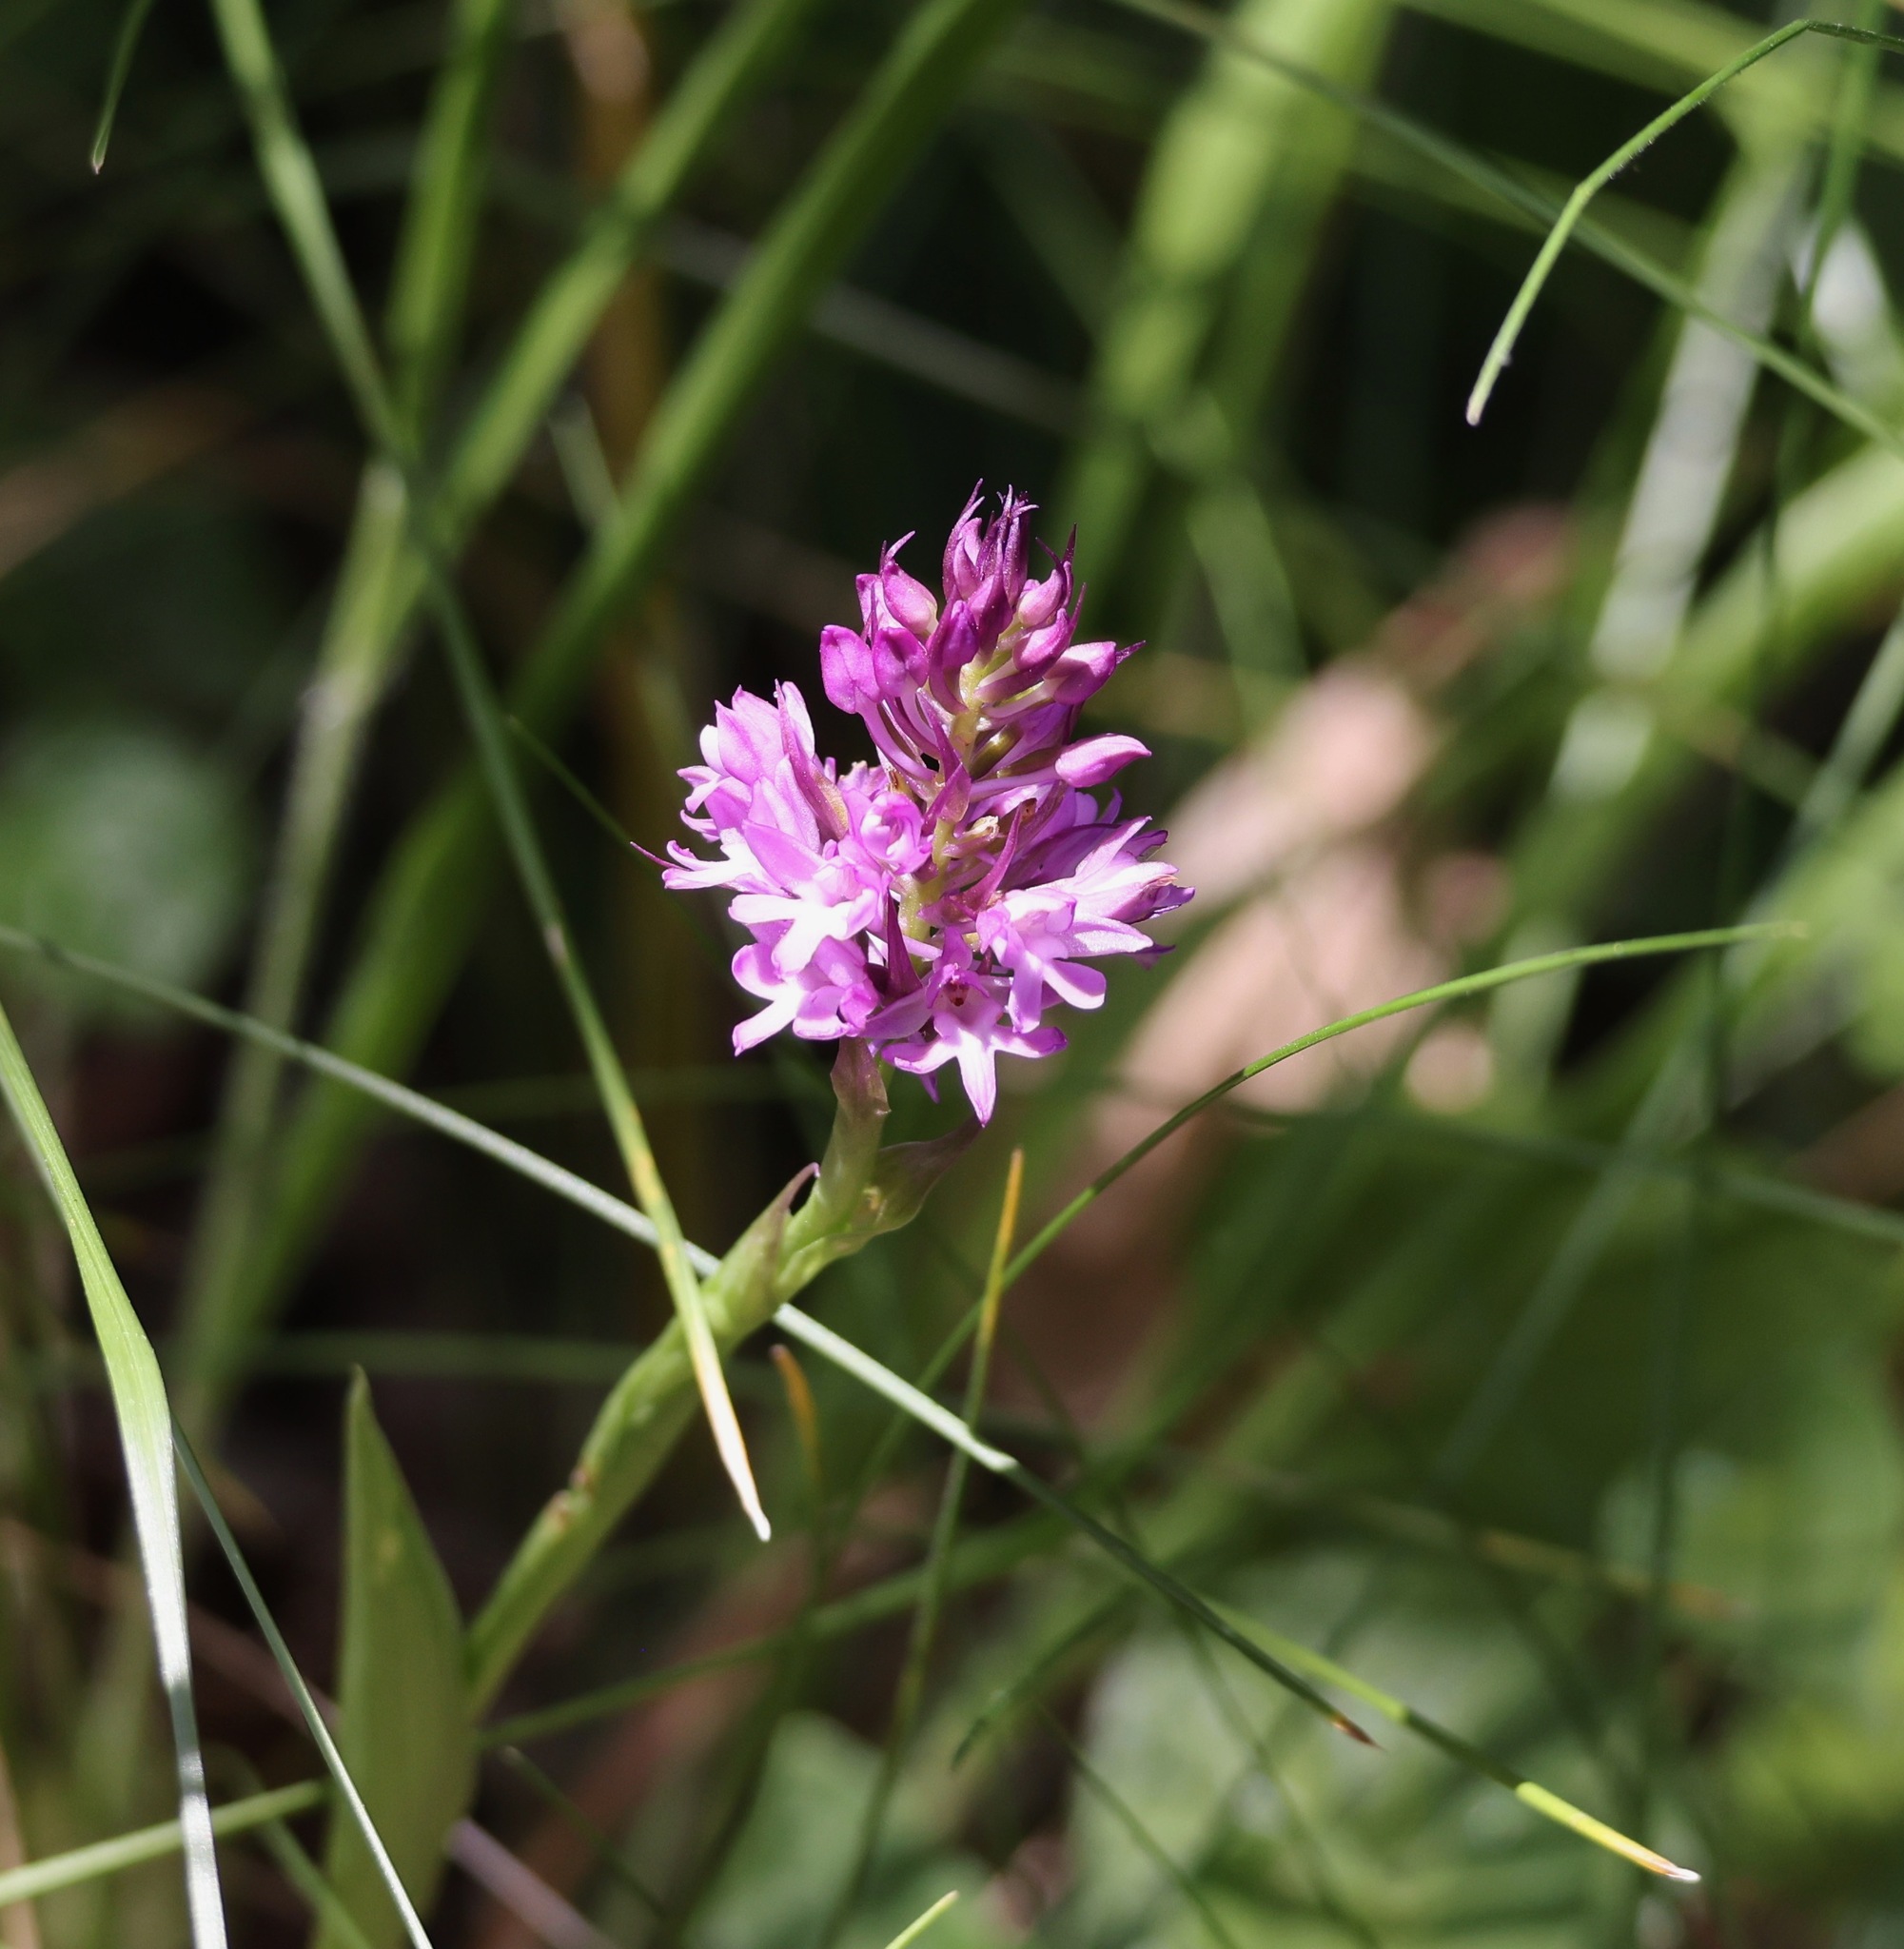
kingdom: Plantae
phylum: Tracheophyta
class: Liliopsida
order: Asparagales
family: Orchidaceae
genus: Anacamptis
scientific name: Anacamptis pyramidalis
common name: Pyramidal orchid
